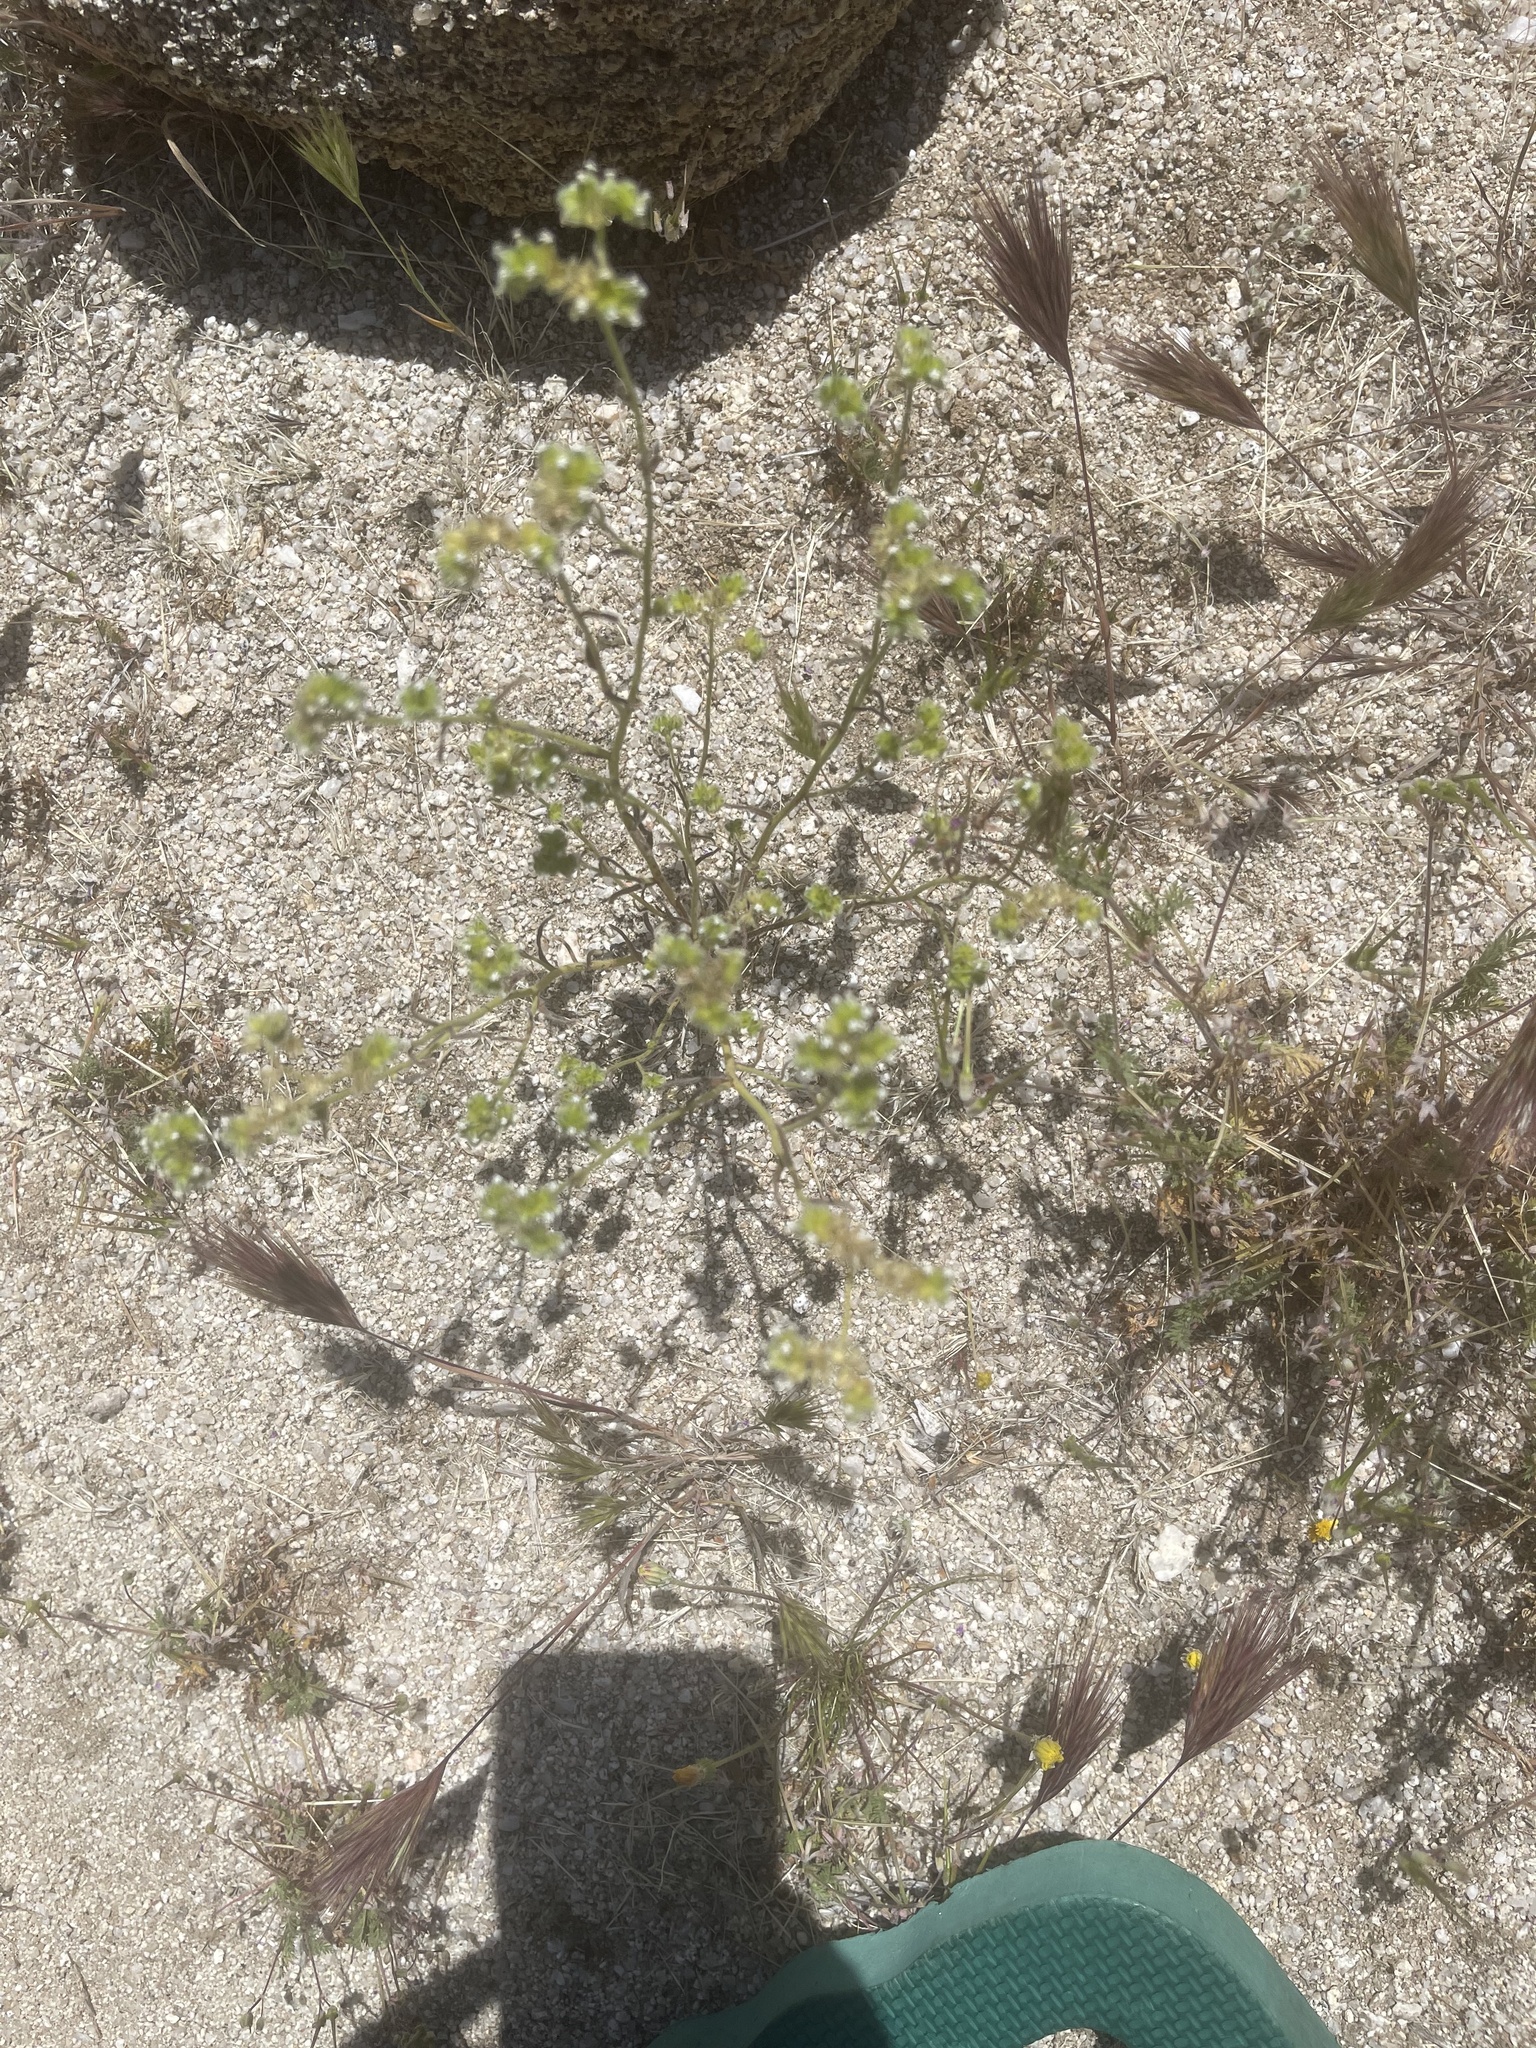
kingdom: Plantae
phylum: Tracheophyta
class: Magnoliopsida
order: Boraginales
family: Boraginaceae
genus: Cryptantha
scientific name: Cryptantha pterocarya
